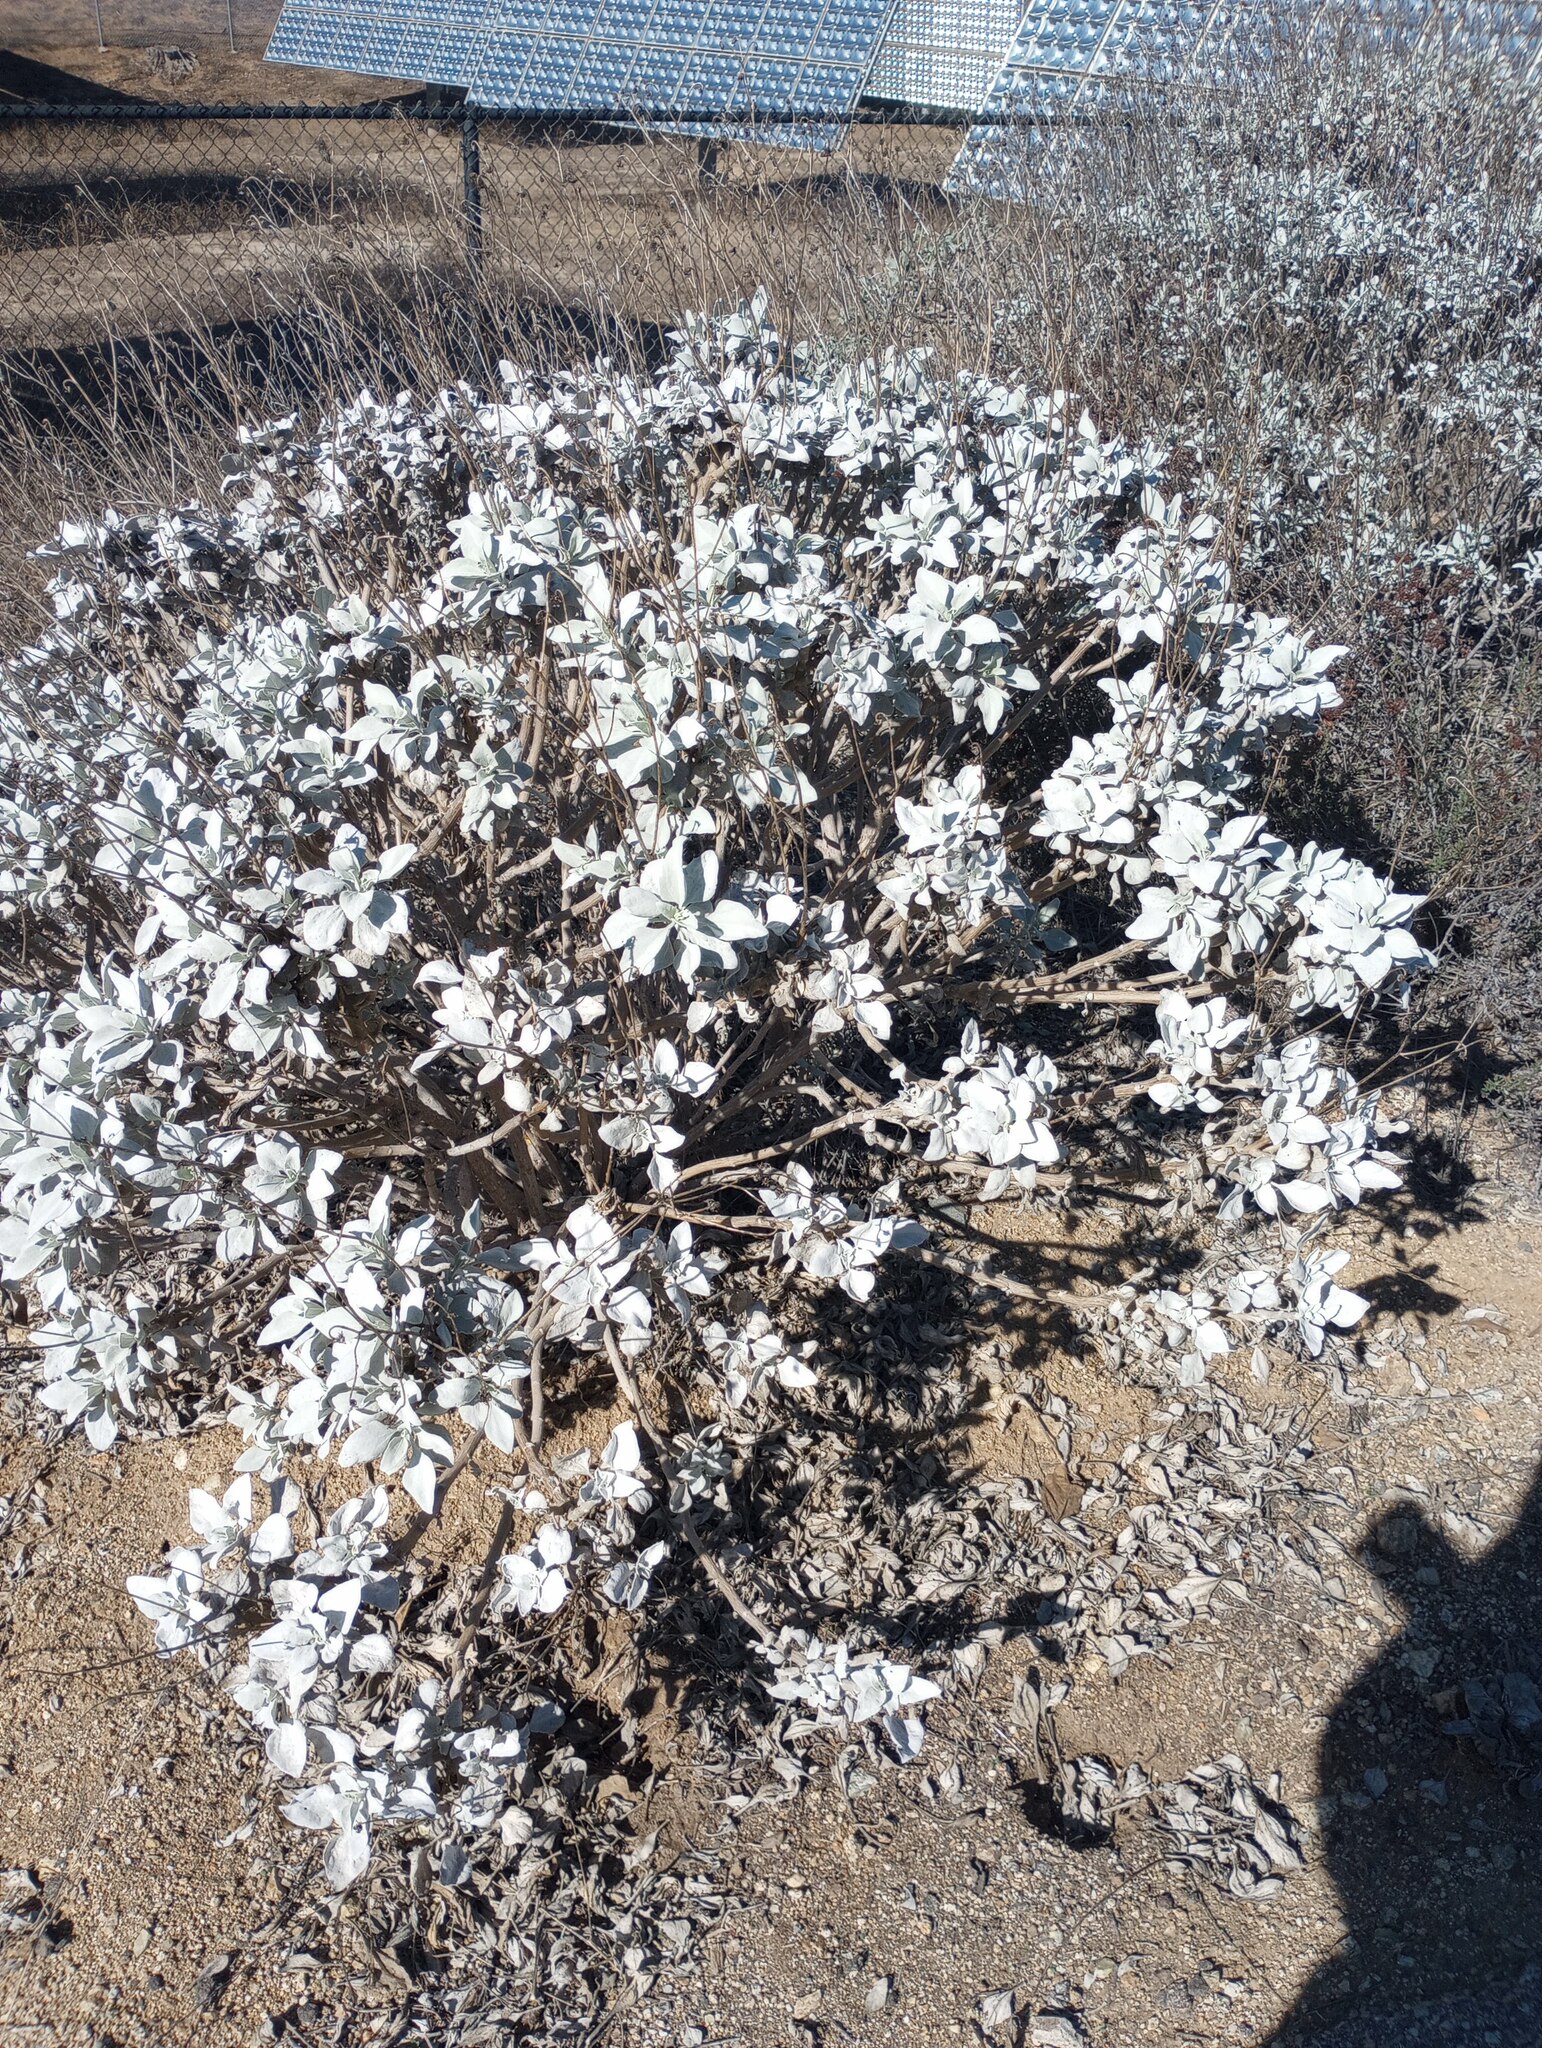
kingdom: Plantae
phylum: Tracheophyta
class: Magnoliopsida
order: Asterales
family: Asteraceae
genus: Encelia
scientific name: Encelia farinosa
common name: Brittlebush
